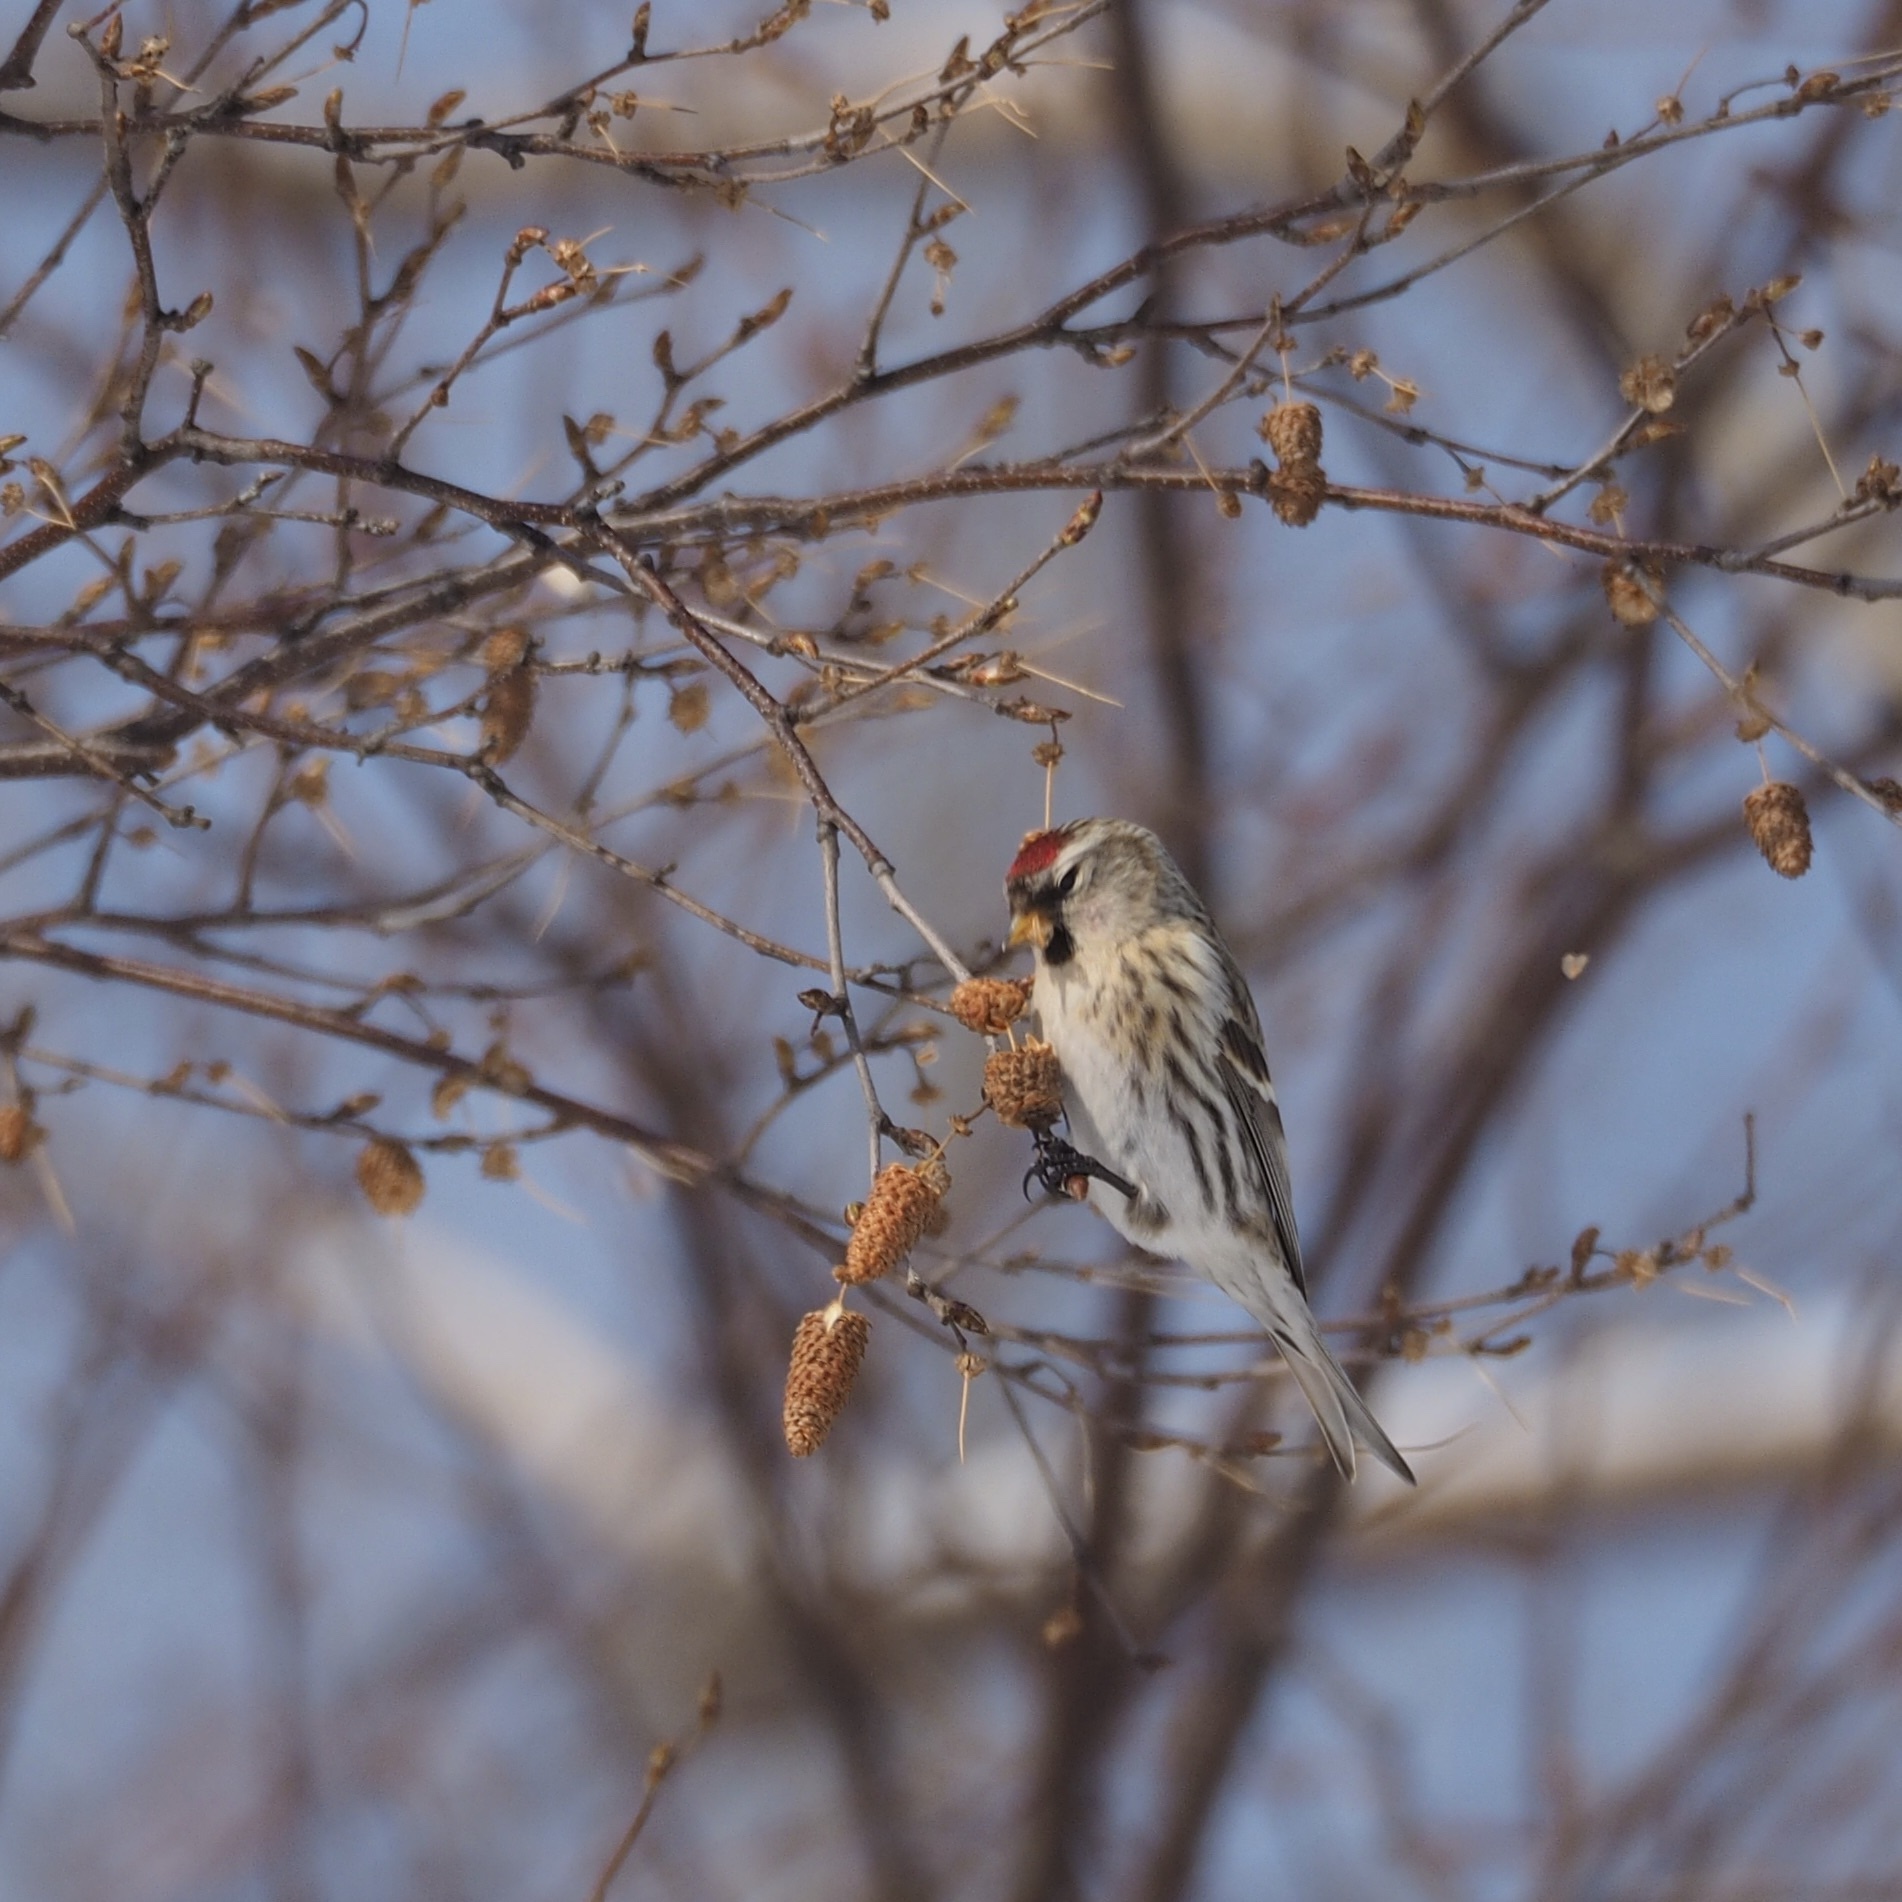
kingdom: Animalia
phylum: Chordata
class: Aves
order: Passeriformes
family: Fringillidae
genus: Acanthis
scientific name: Acanthis flammea
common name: Common redpoll
